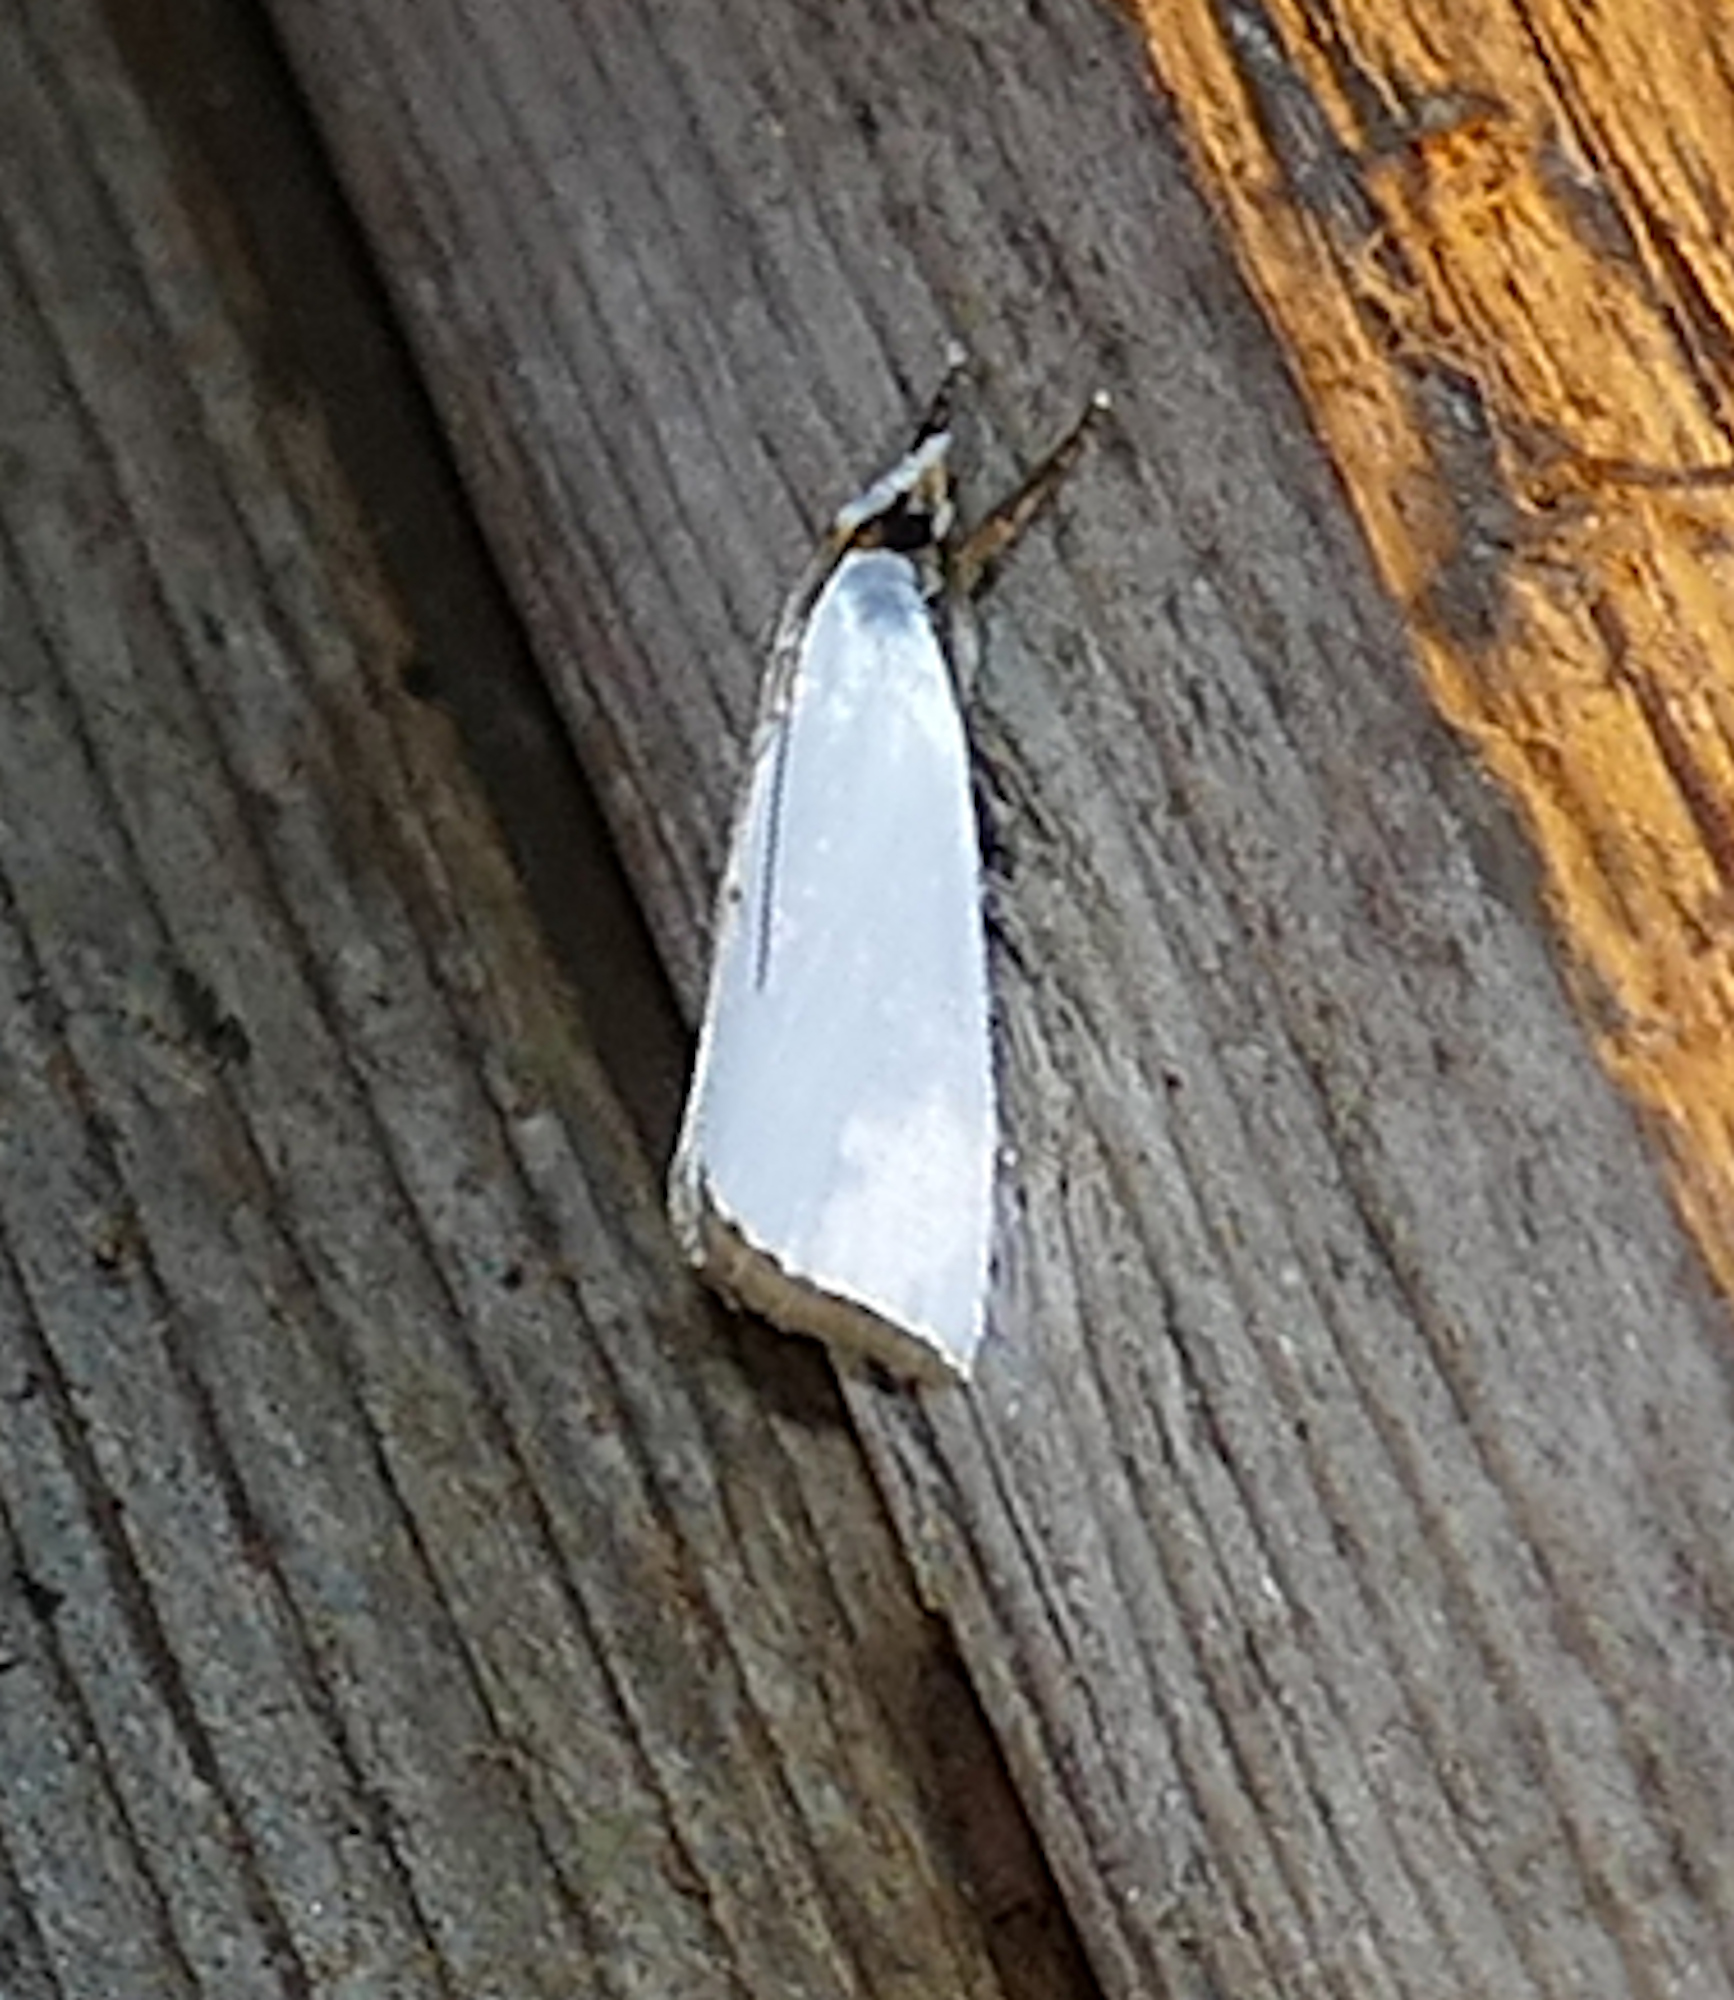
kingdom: Animalia
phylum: Arthropoda
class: Insecta
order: Lepidoptera
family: Crambidae
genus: Argyria
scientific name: Argyria nivalis
